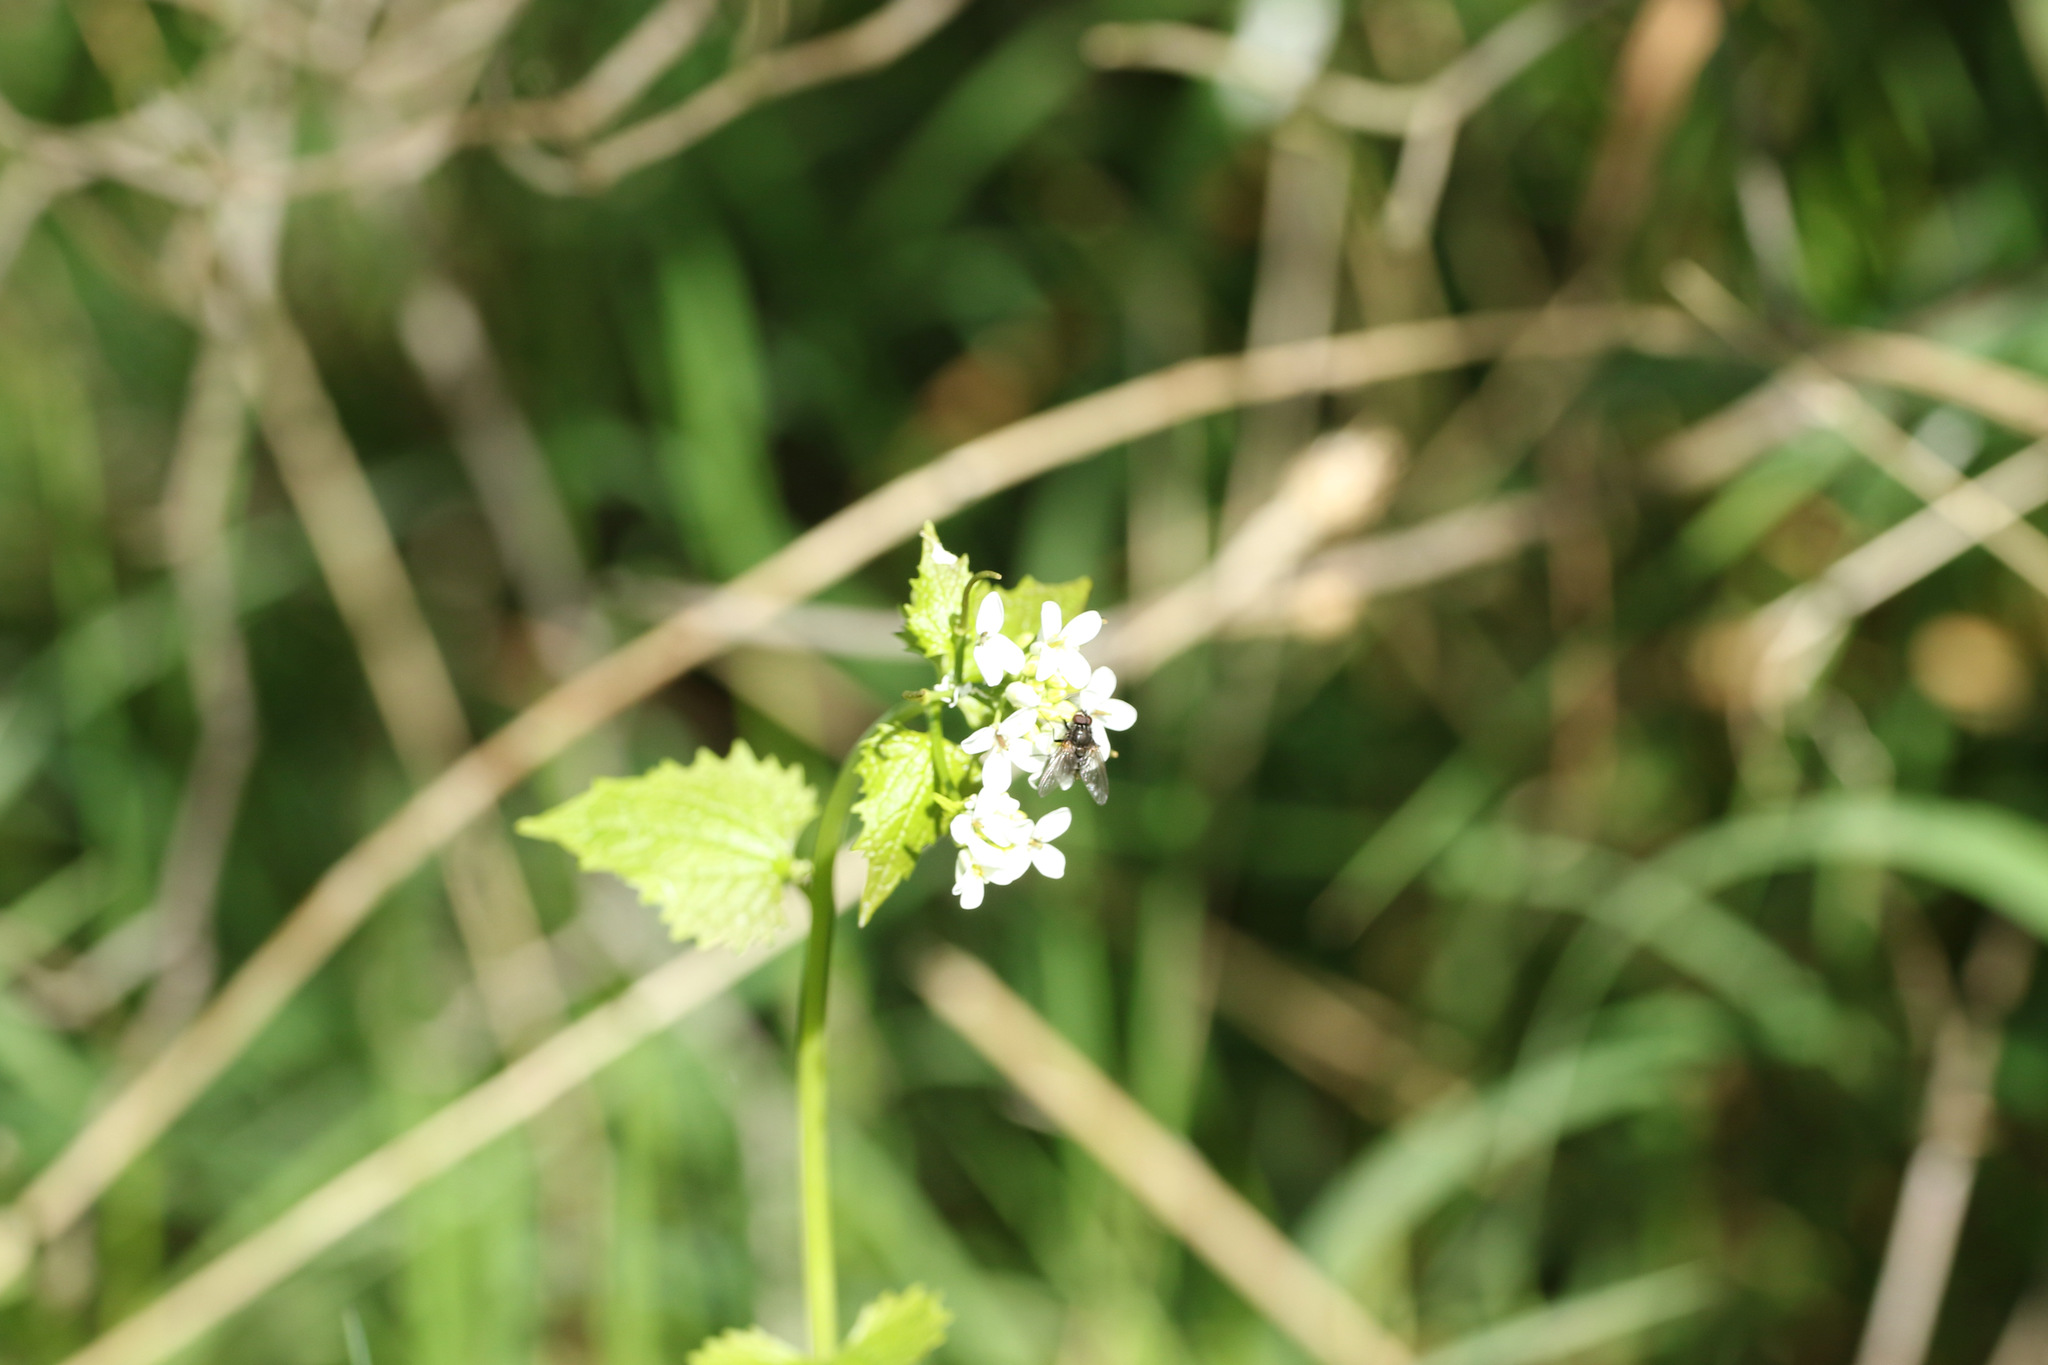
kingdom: Plantae
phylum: Tracheophyta
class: Magnoliopsida
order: Brassicales
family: Brassicaceae
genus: Alliaria
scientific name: Alliaria petiolata
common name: Garlic mustard
